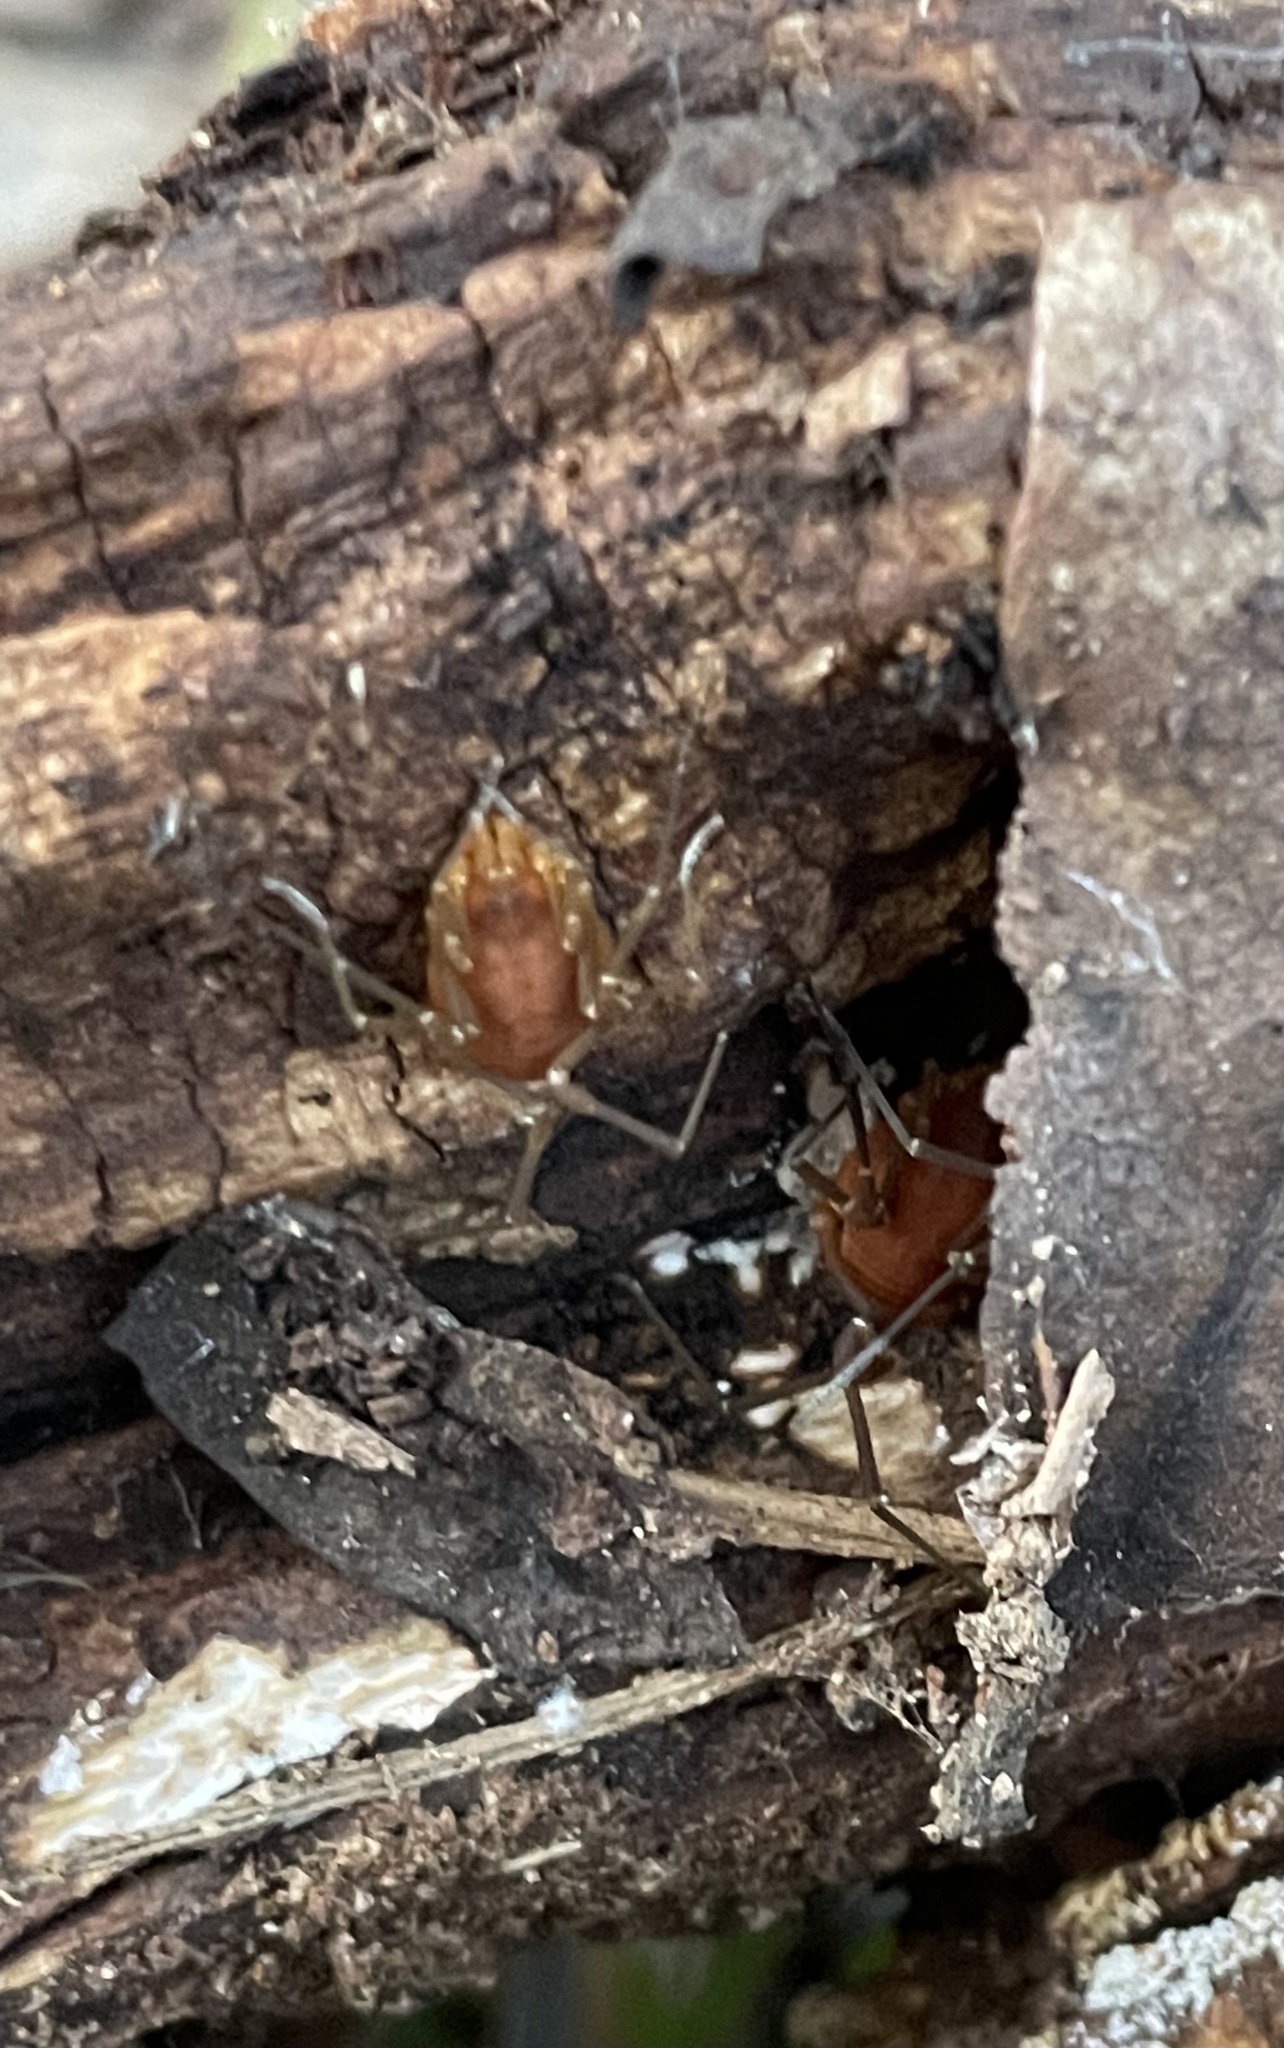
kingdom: Animalia
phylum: Arthropoda
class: Arachnida
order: Opiliones
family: Cosmetidae
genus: Libitioides
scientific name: Libitioides sayi
